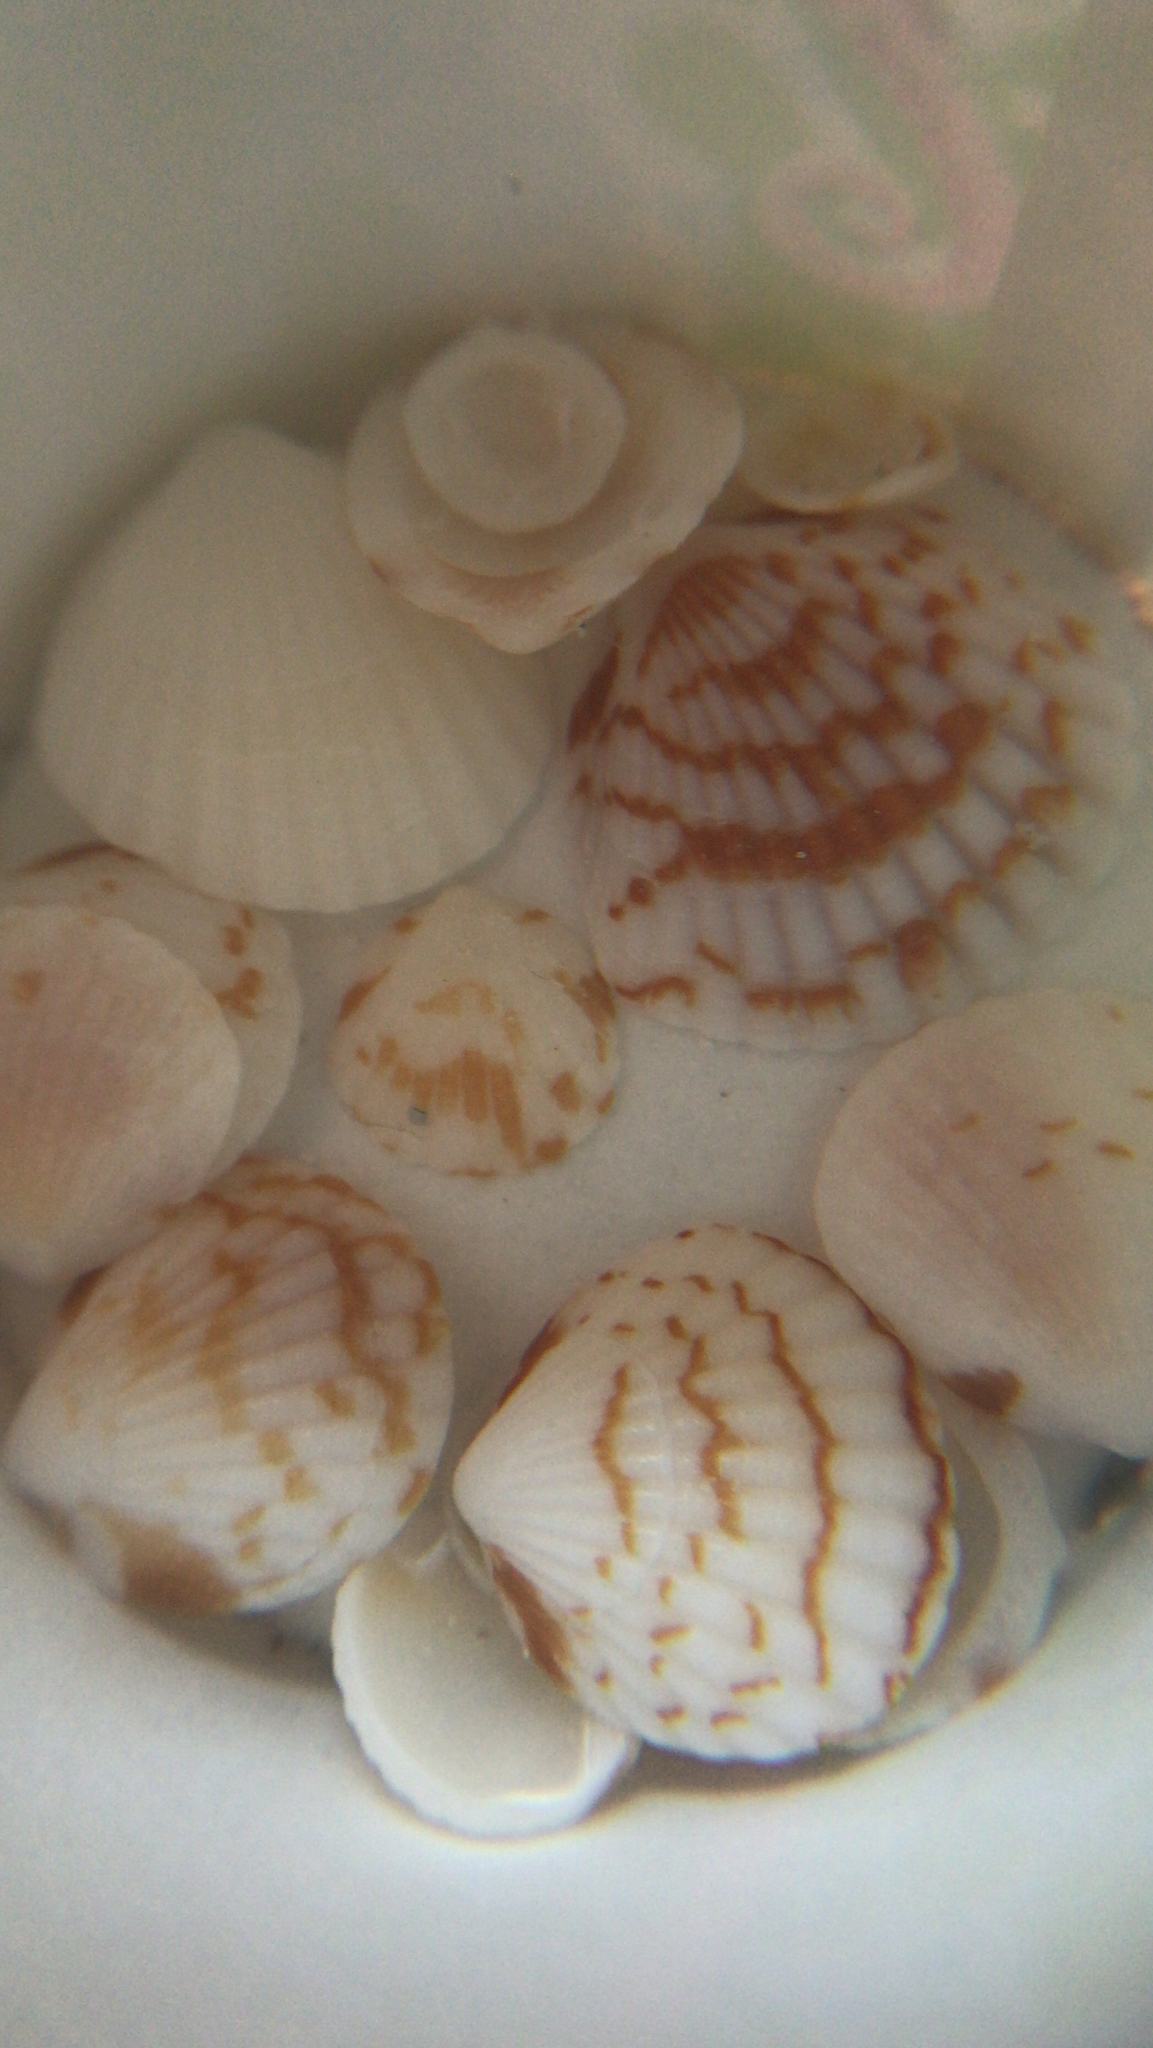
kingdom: Animalia
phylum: Mollusca
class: Bivalvia
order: Arcida
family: Glycymerididae
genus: Tucetona
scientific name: Tucetona pectinata
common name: Comb bittersweet
